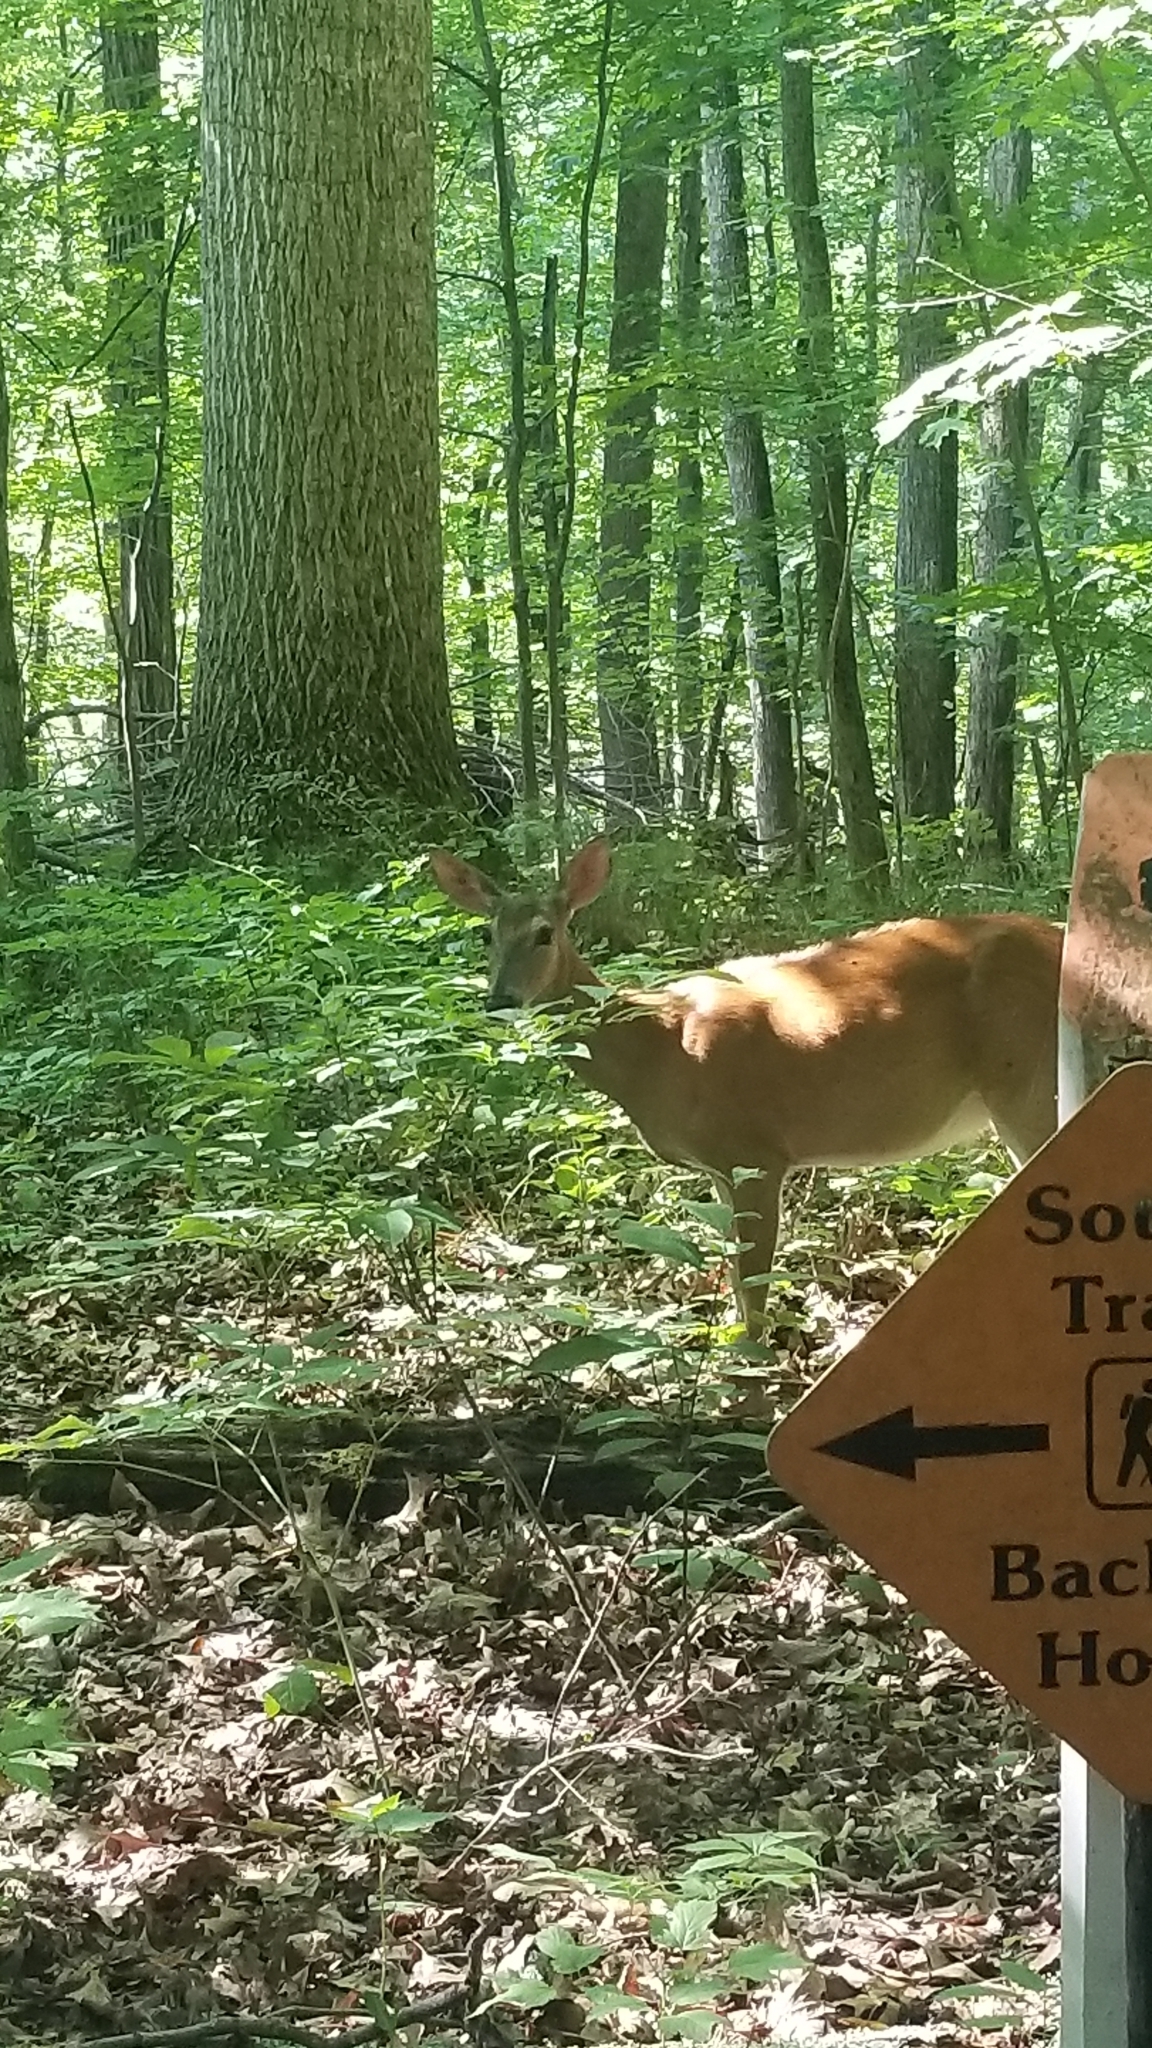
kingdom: Animalia
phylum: Chordata
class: Mammalia
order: Artiodactyla
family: Cervidae
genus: Odocoileus
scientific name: Odocoileus virginianus
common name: White-tailed deer
